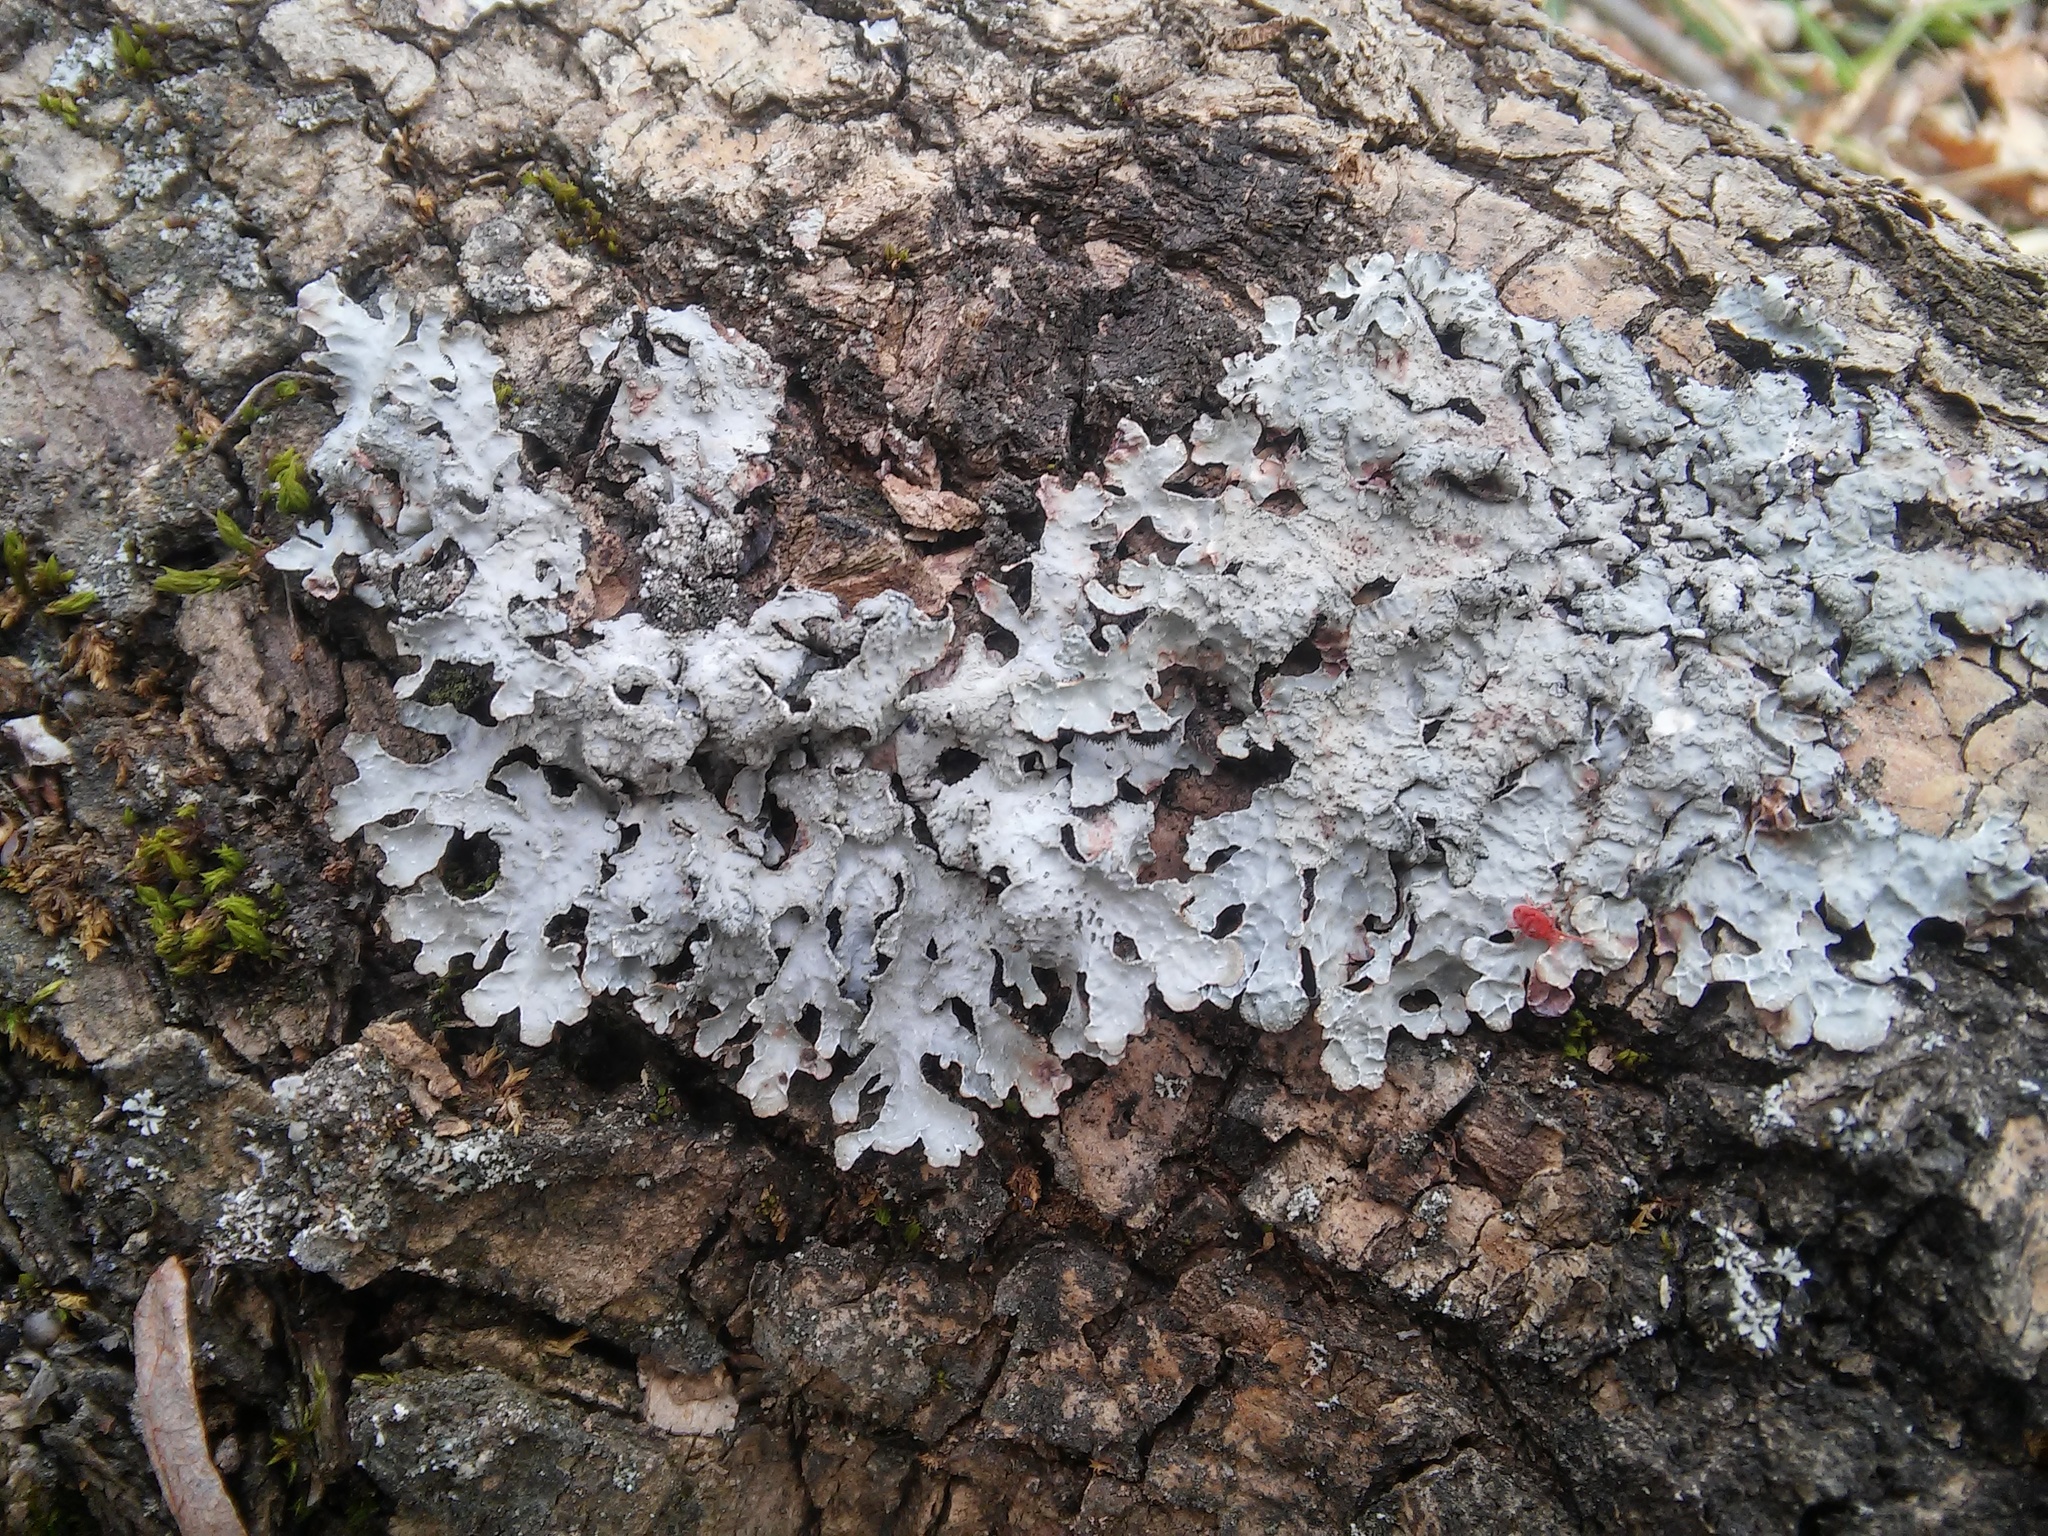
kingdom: Fungi
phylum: Ascomycota
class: Lecanoromycetes
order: Lecanorales
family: Parmeliaceae
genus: Parmelia
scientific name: Parmelia sulcata
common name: Netted shield lichen
